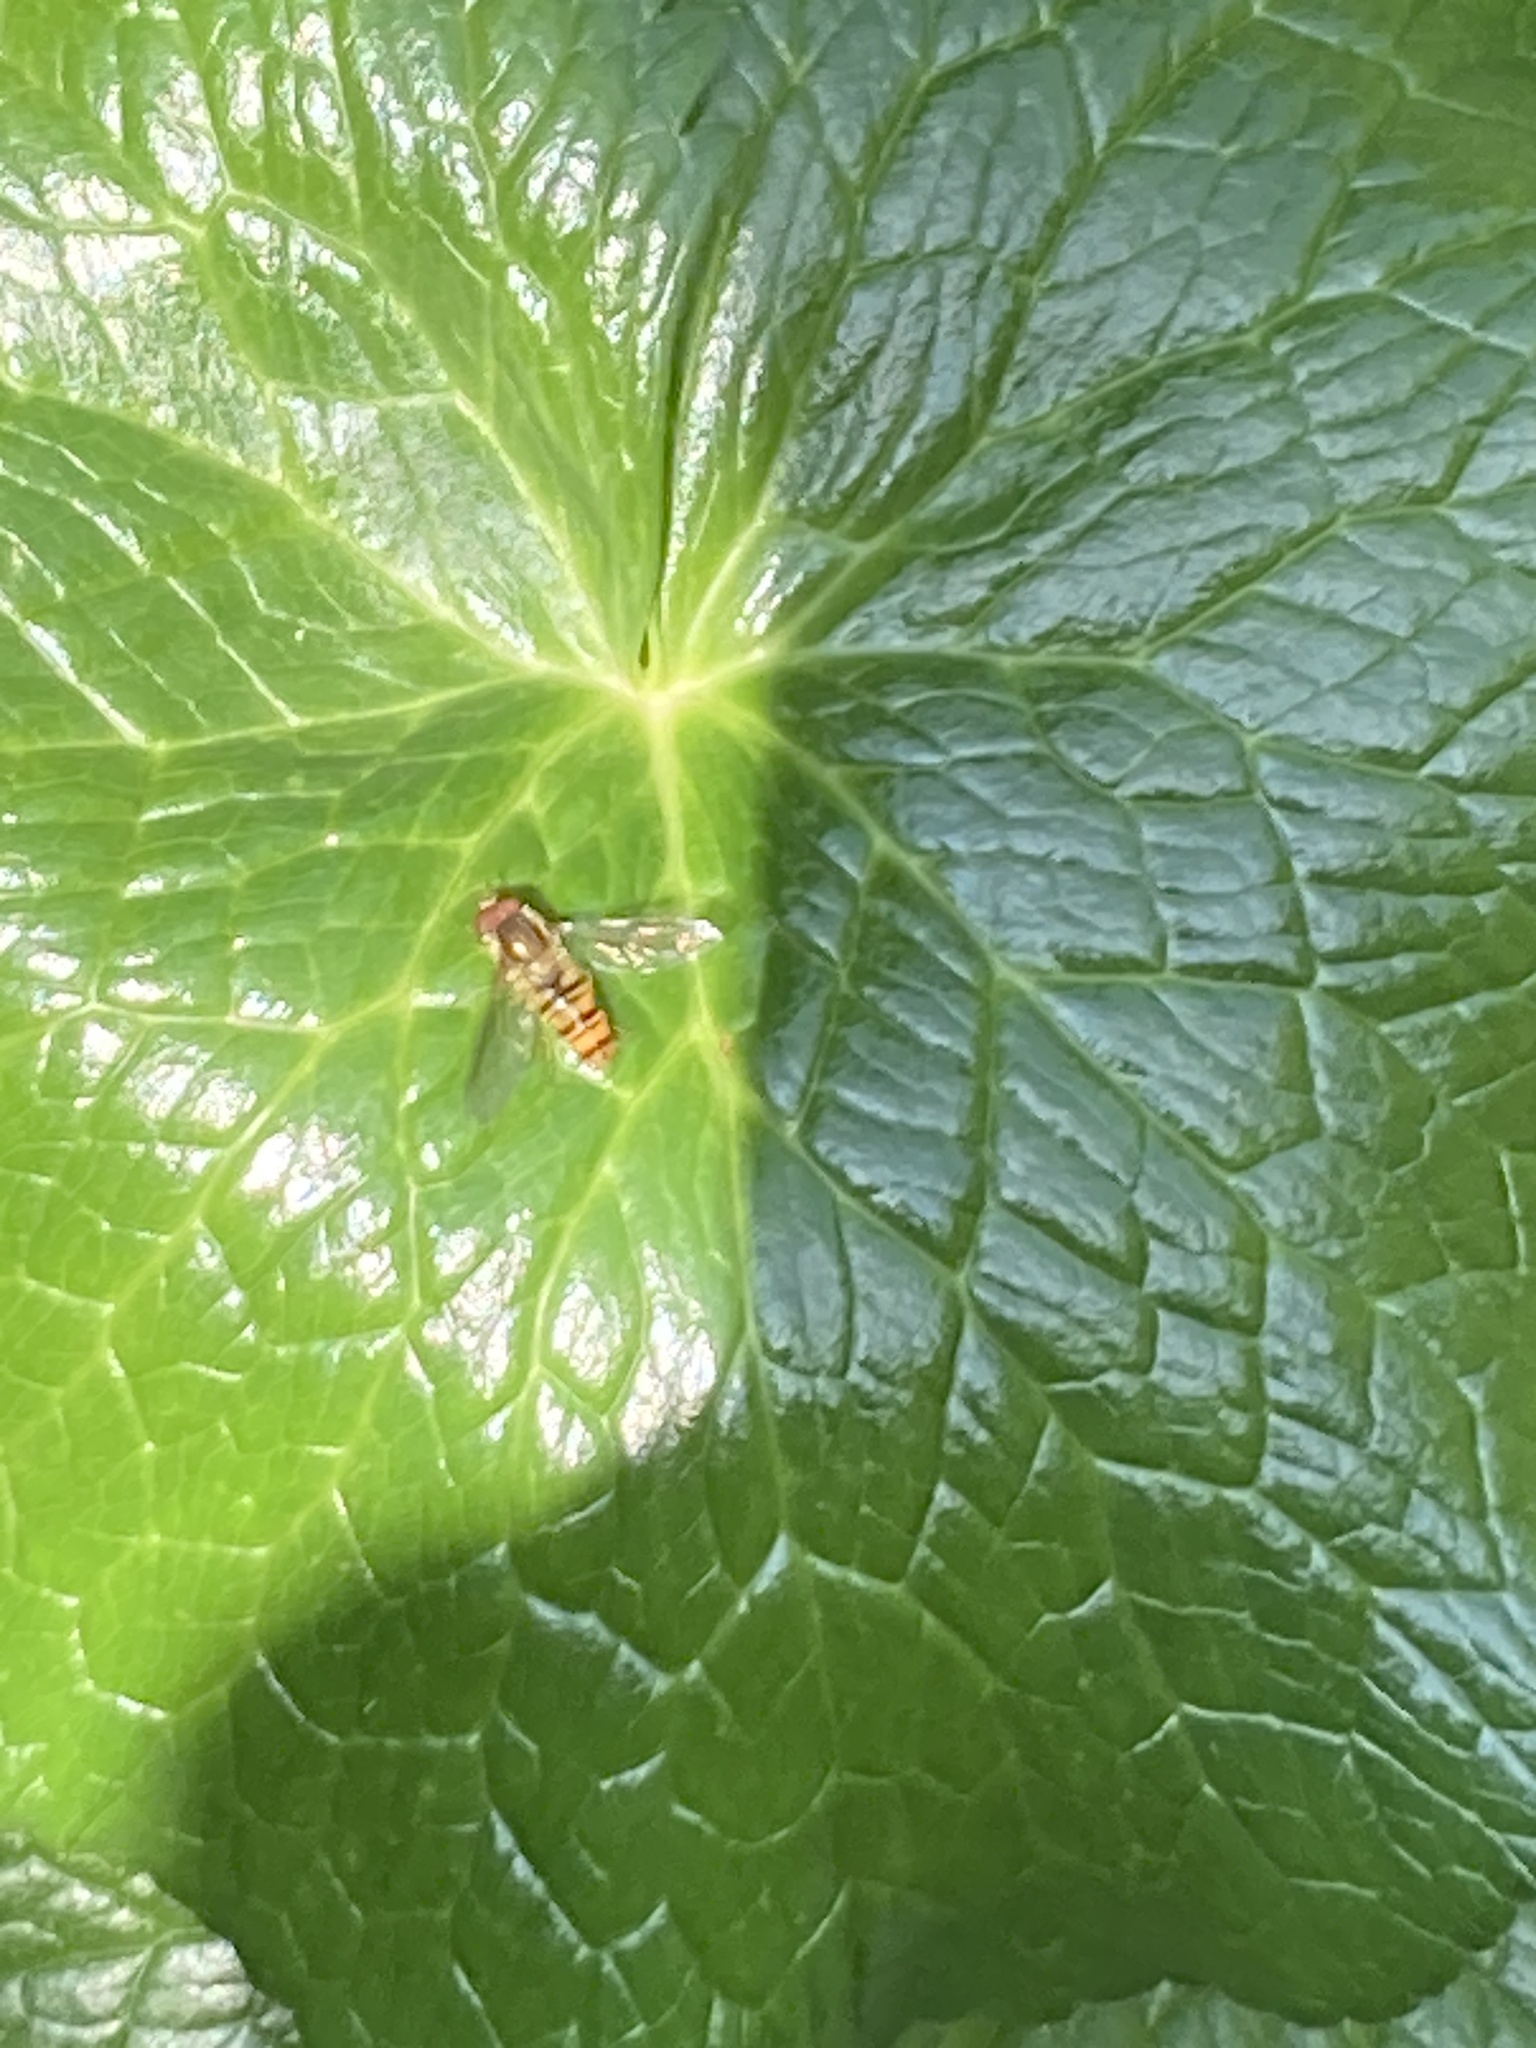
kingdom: Animalia
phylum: Arthropoda
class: Insecta
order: Diptera
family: Syrphidae
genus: Episyrphus
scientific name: Episyrphus balteatus
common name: Marmalade hoverfly
